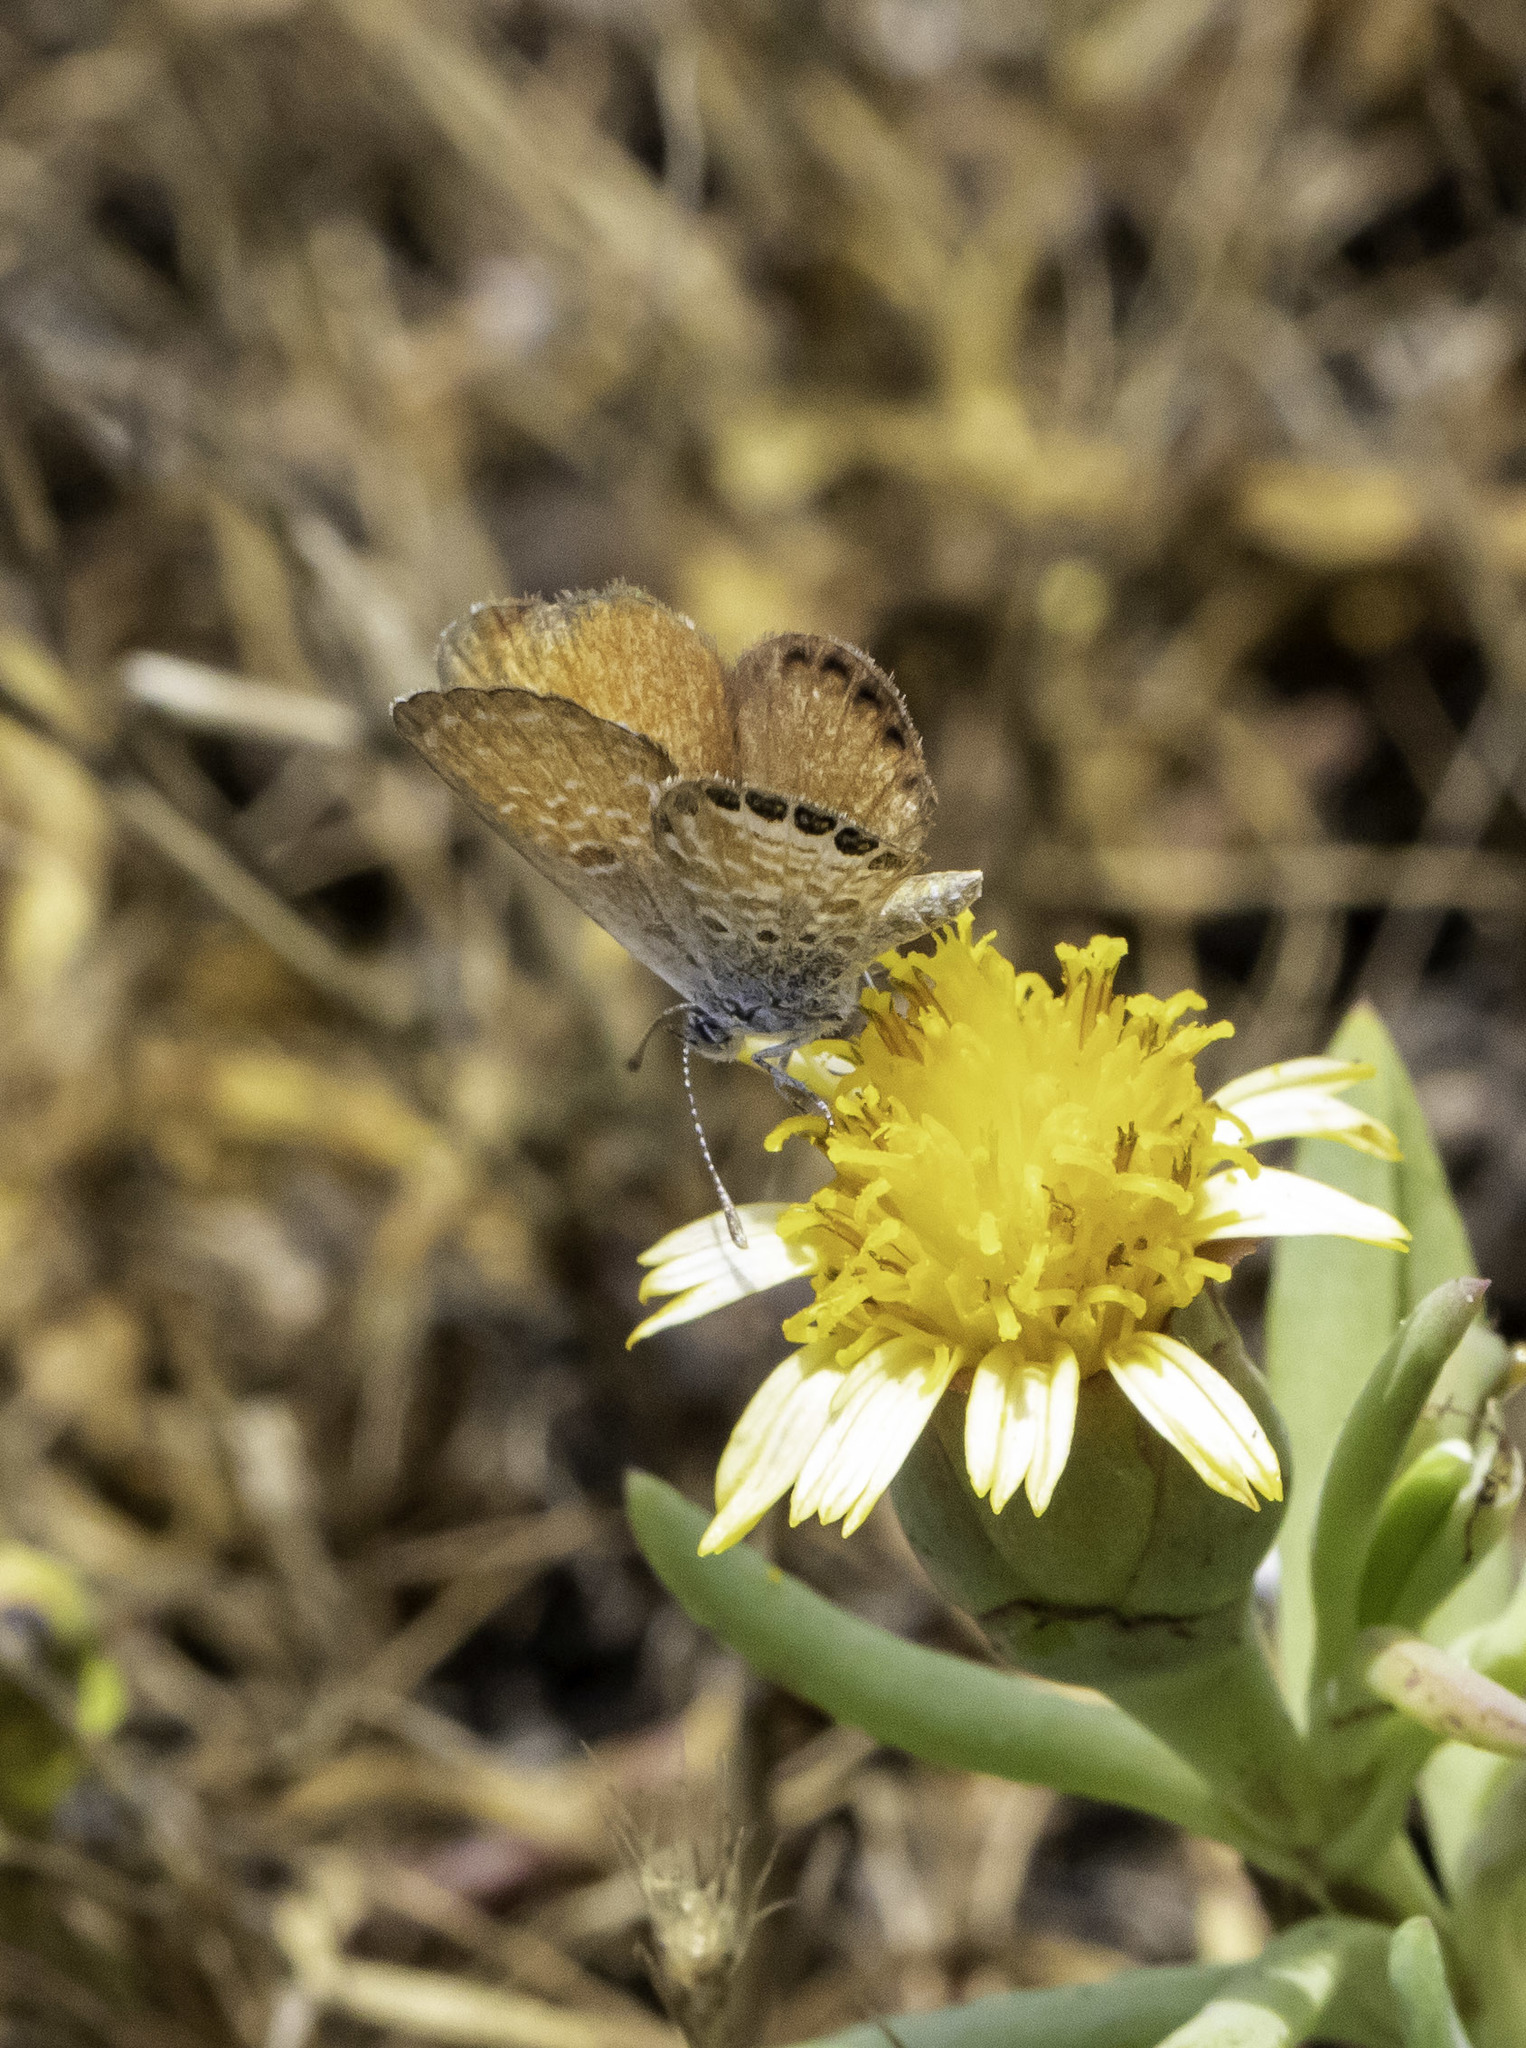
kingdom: Animalia
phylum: Arthropoda
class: Insecta
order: Lepidoptera
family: Lycaenidae
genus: Brephidium
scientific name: Brephidium exilis
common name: Pygmy blue
